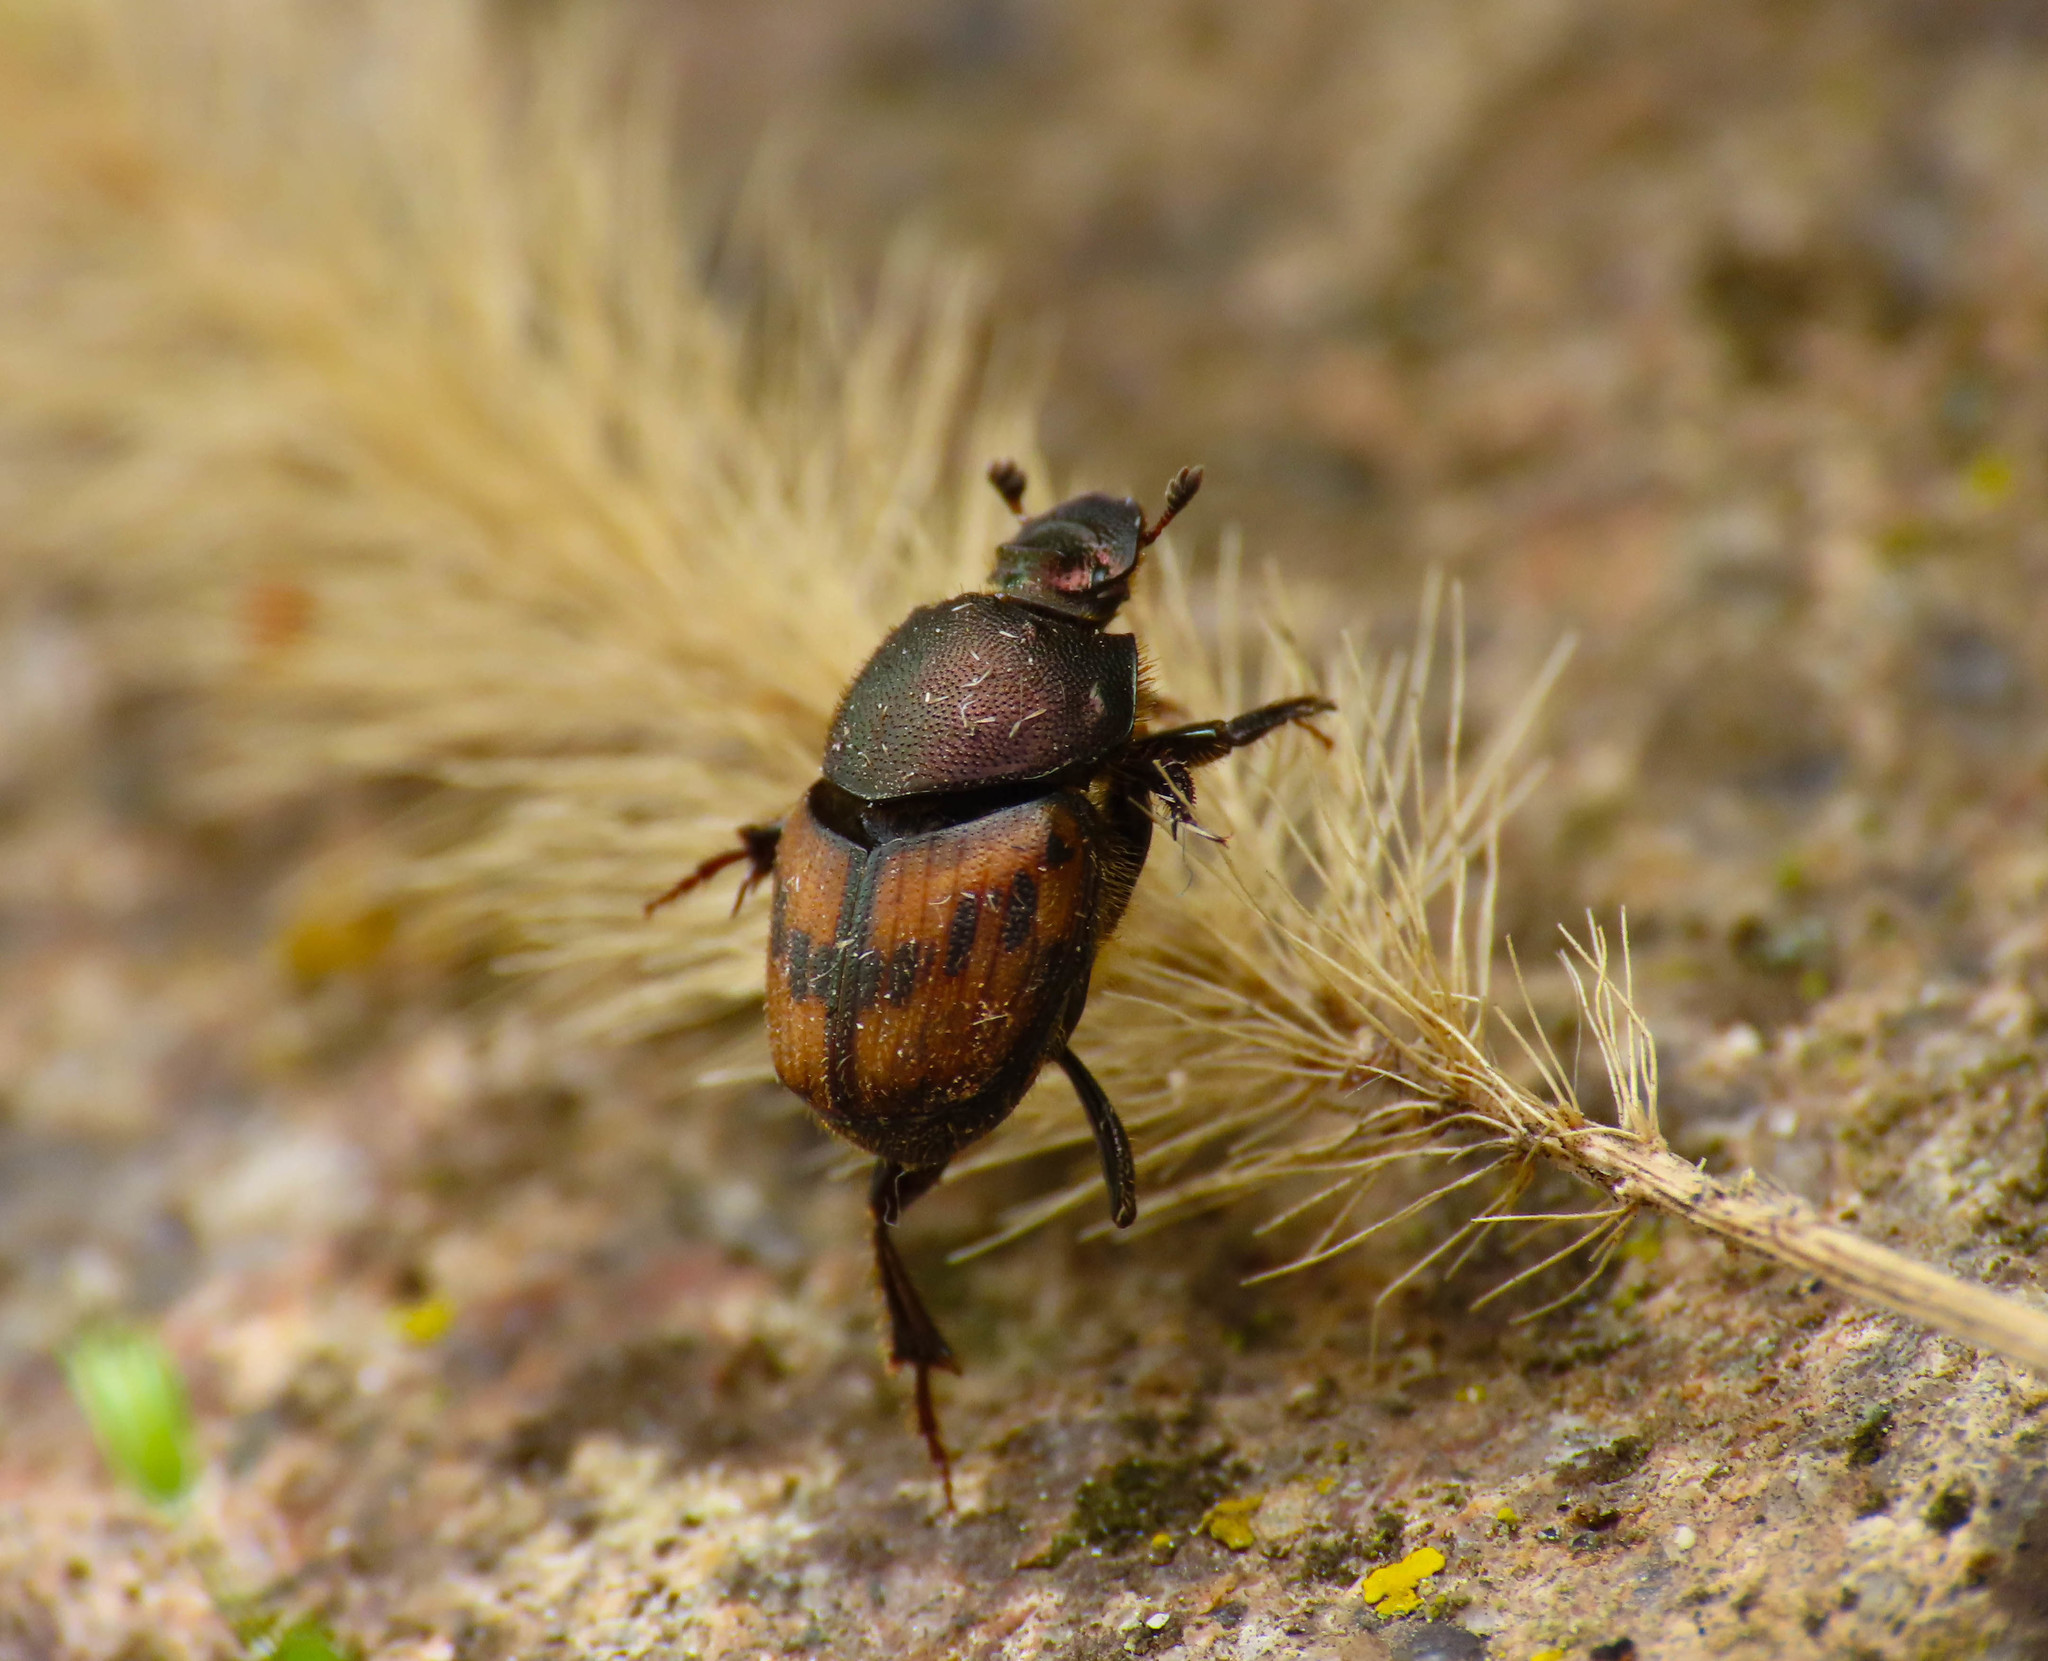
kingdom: Animalia
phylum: Arthropoda
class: Insecta
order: Coleoptera
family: Scarabaeidae
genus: Onthophagus
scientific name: Onthophagus lemur
